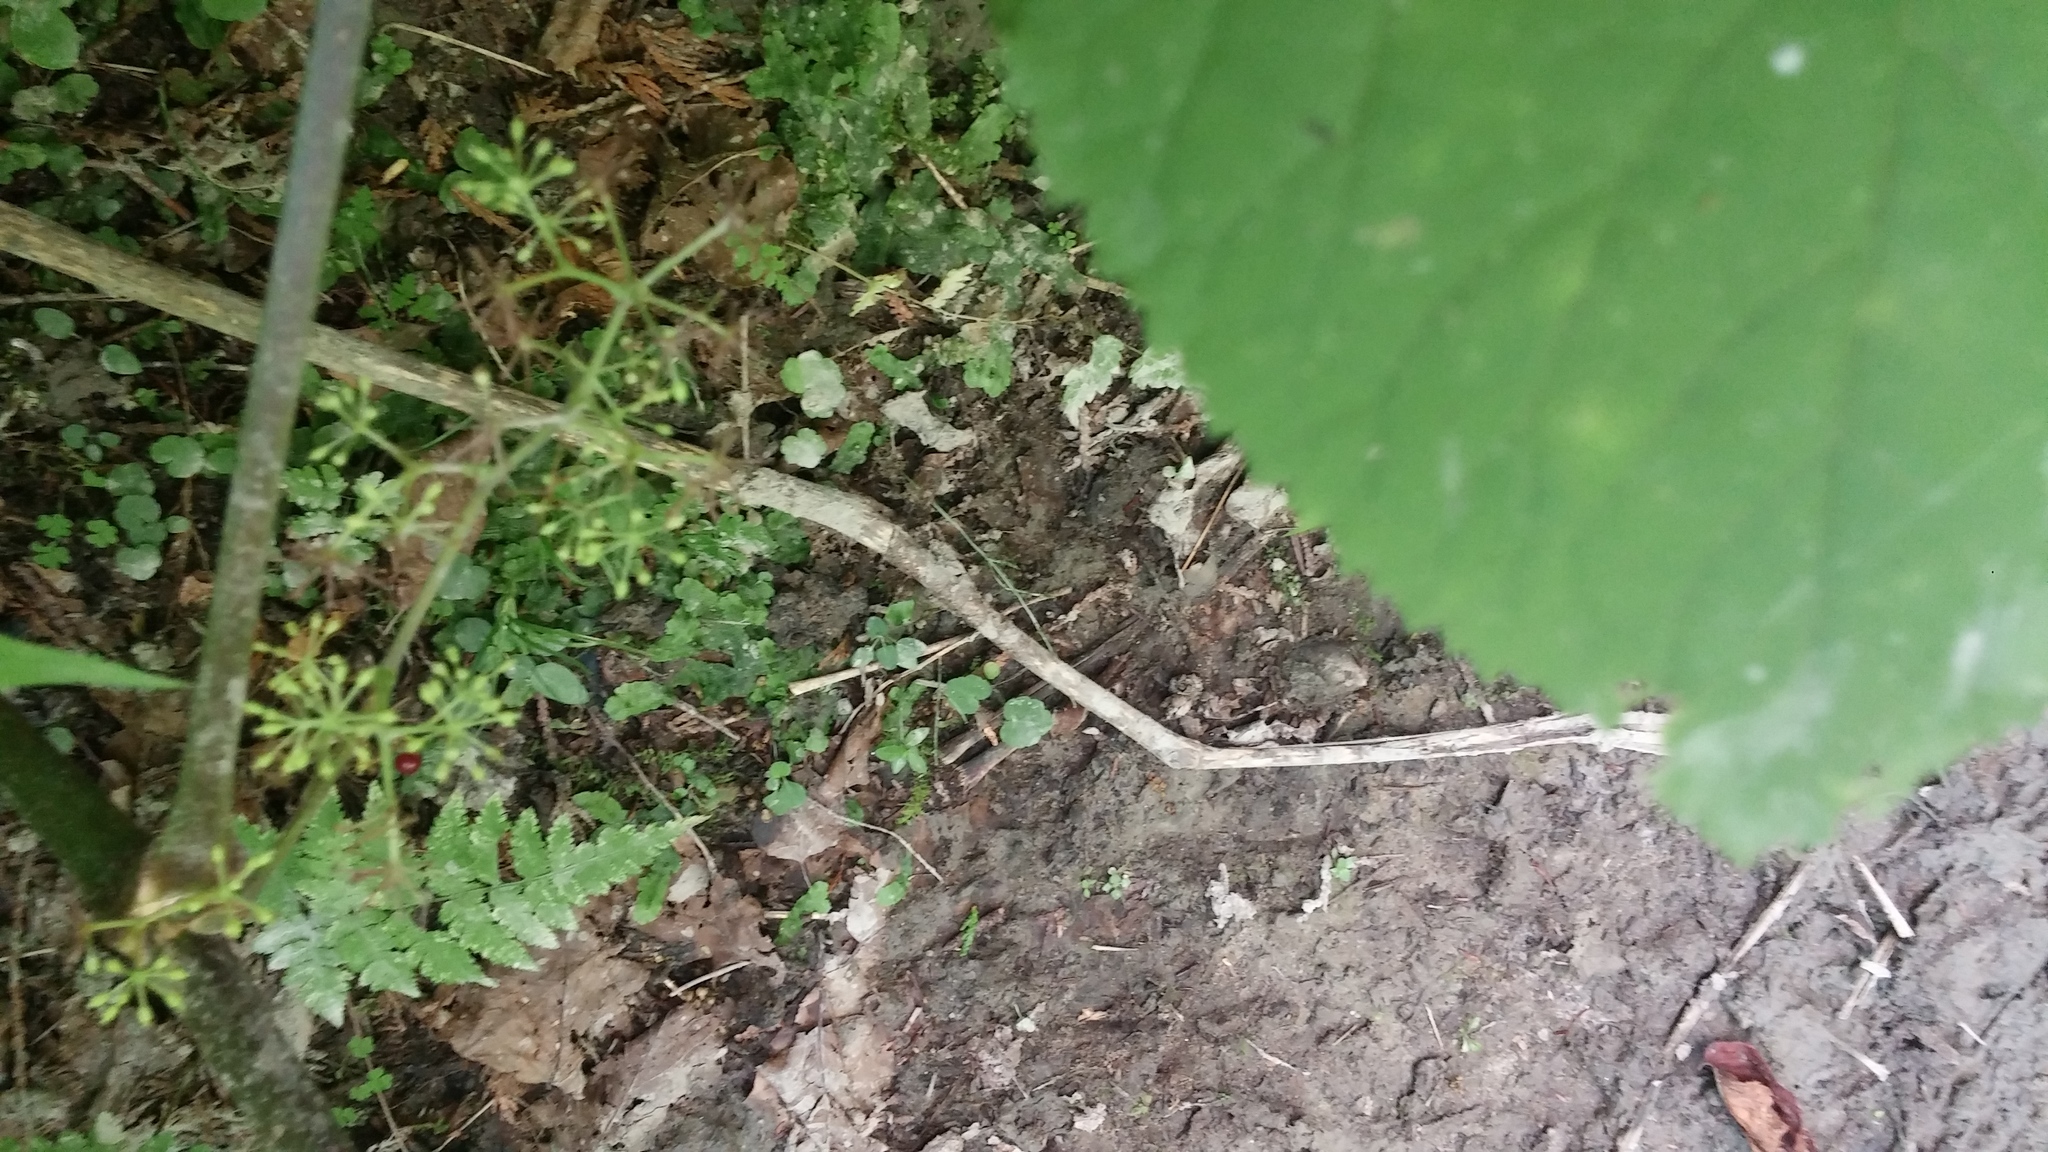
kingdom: Plantae
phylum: Tracheophyta
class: Magnoliopsida
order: Apiales
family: Araliaceae
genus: Aralia
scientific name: Aralia racemosa
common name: American-spikenard
